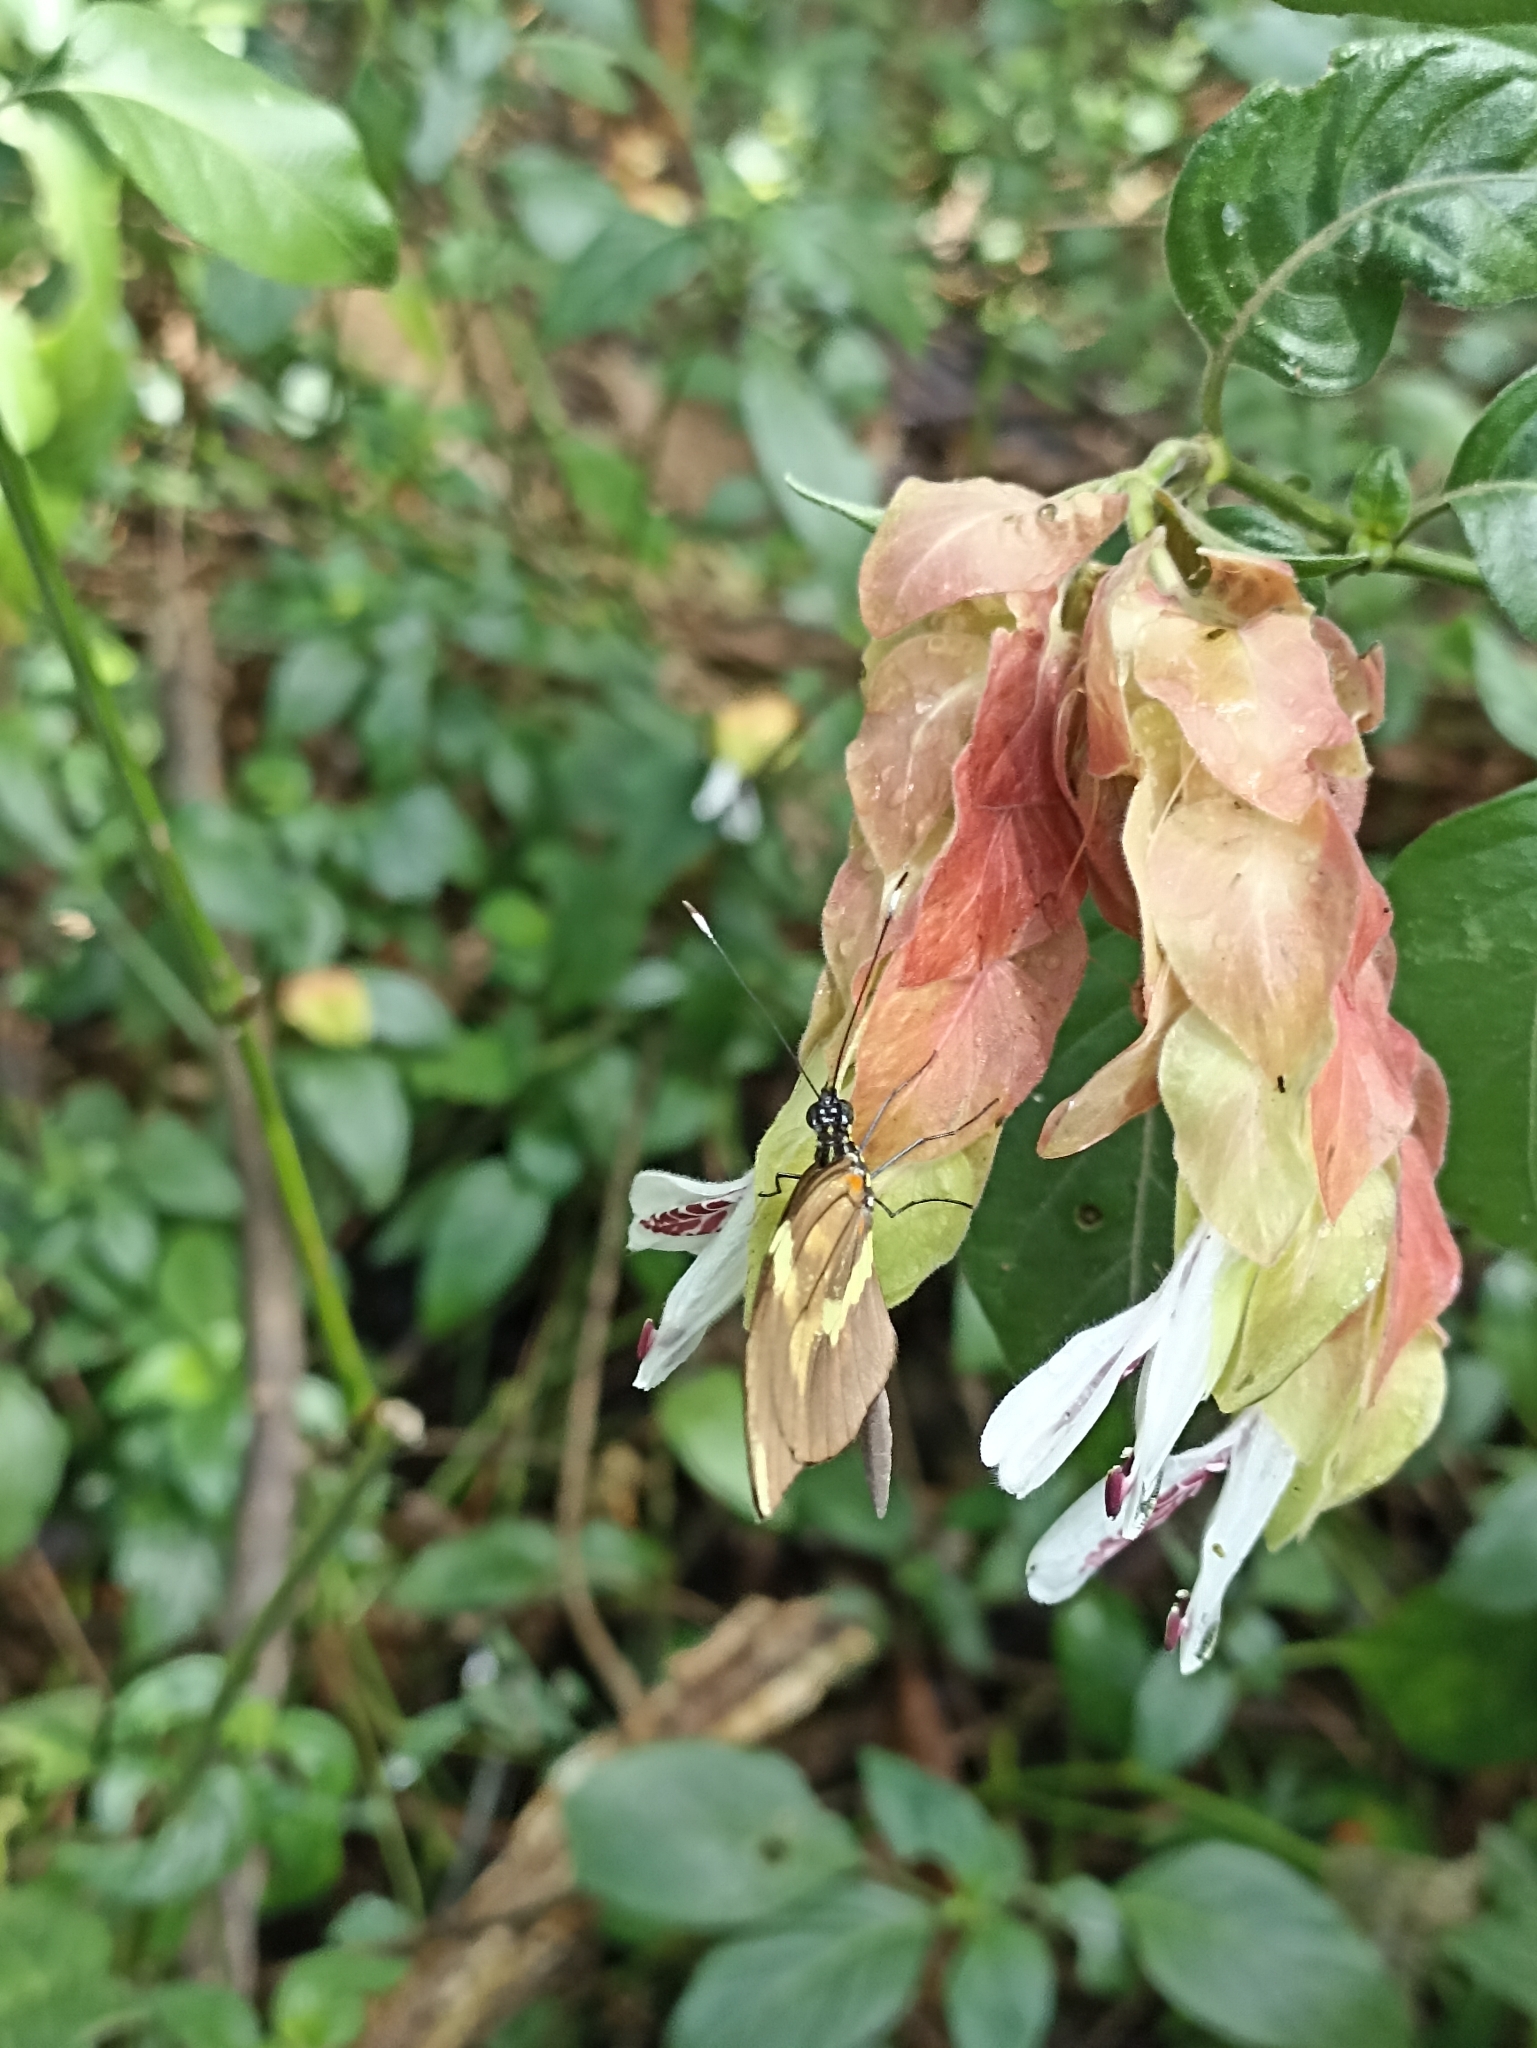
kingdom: Animalia
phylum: Arthropoda
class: Insecta
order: Lepidoptera
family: Pieridae
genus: Dismorphia
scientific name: Dismorphia astyocha
